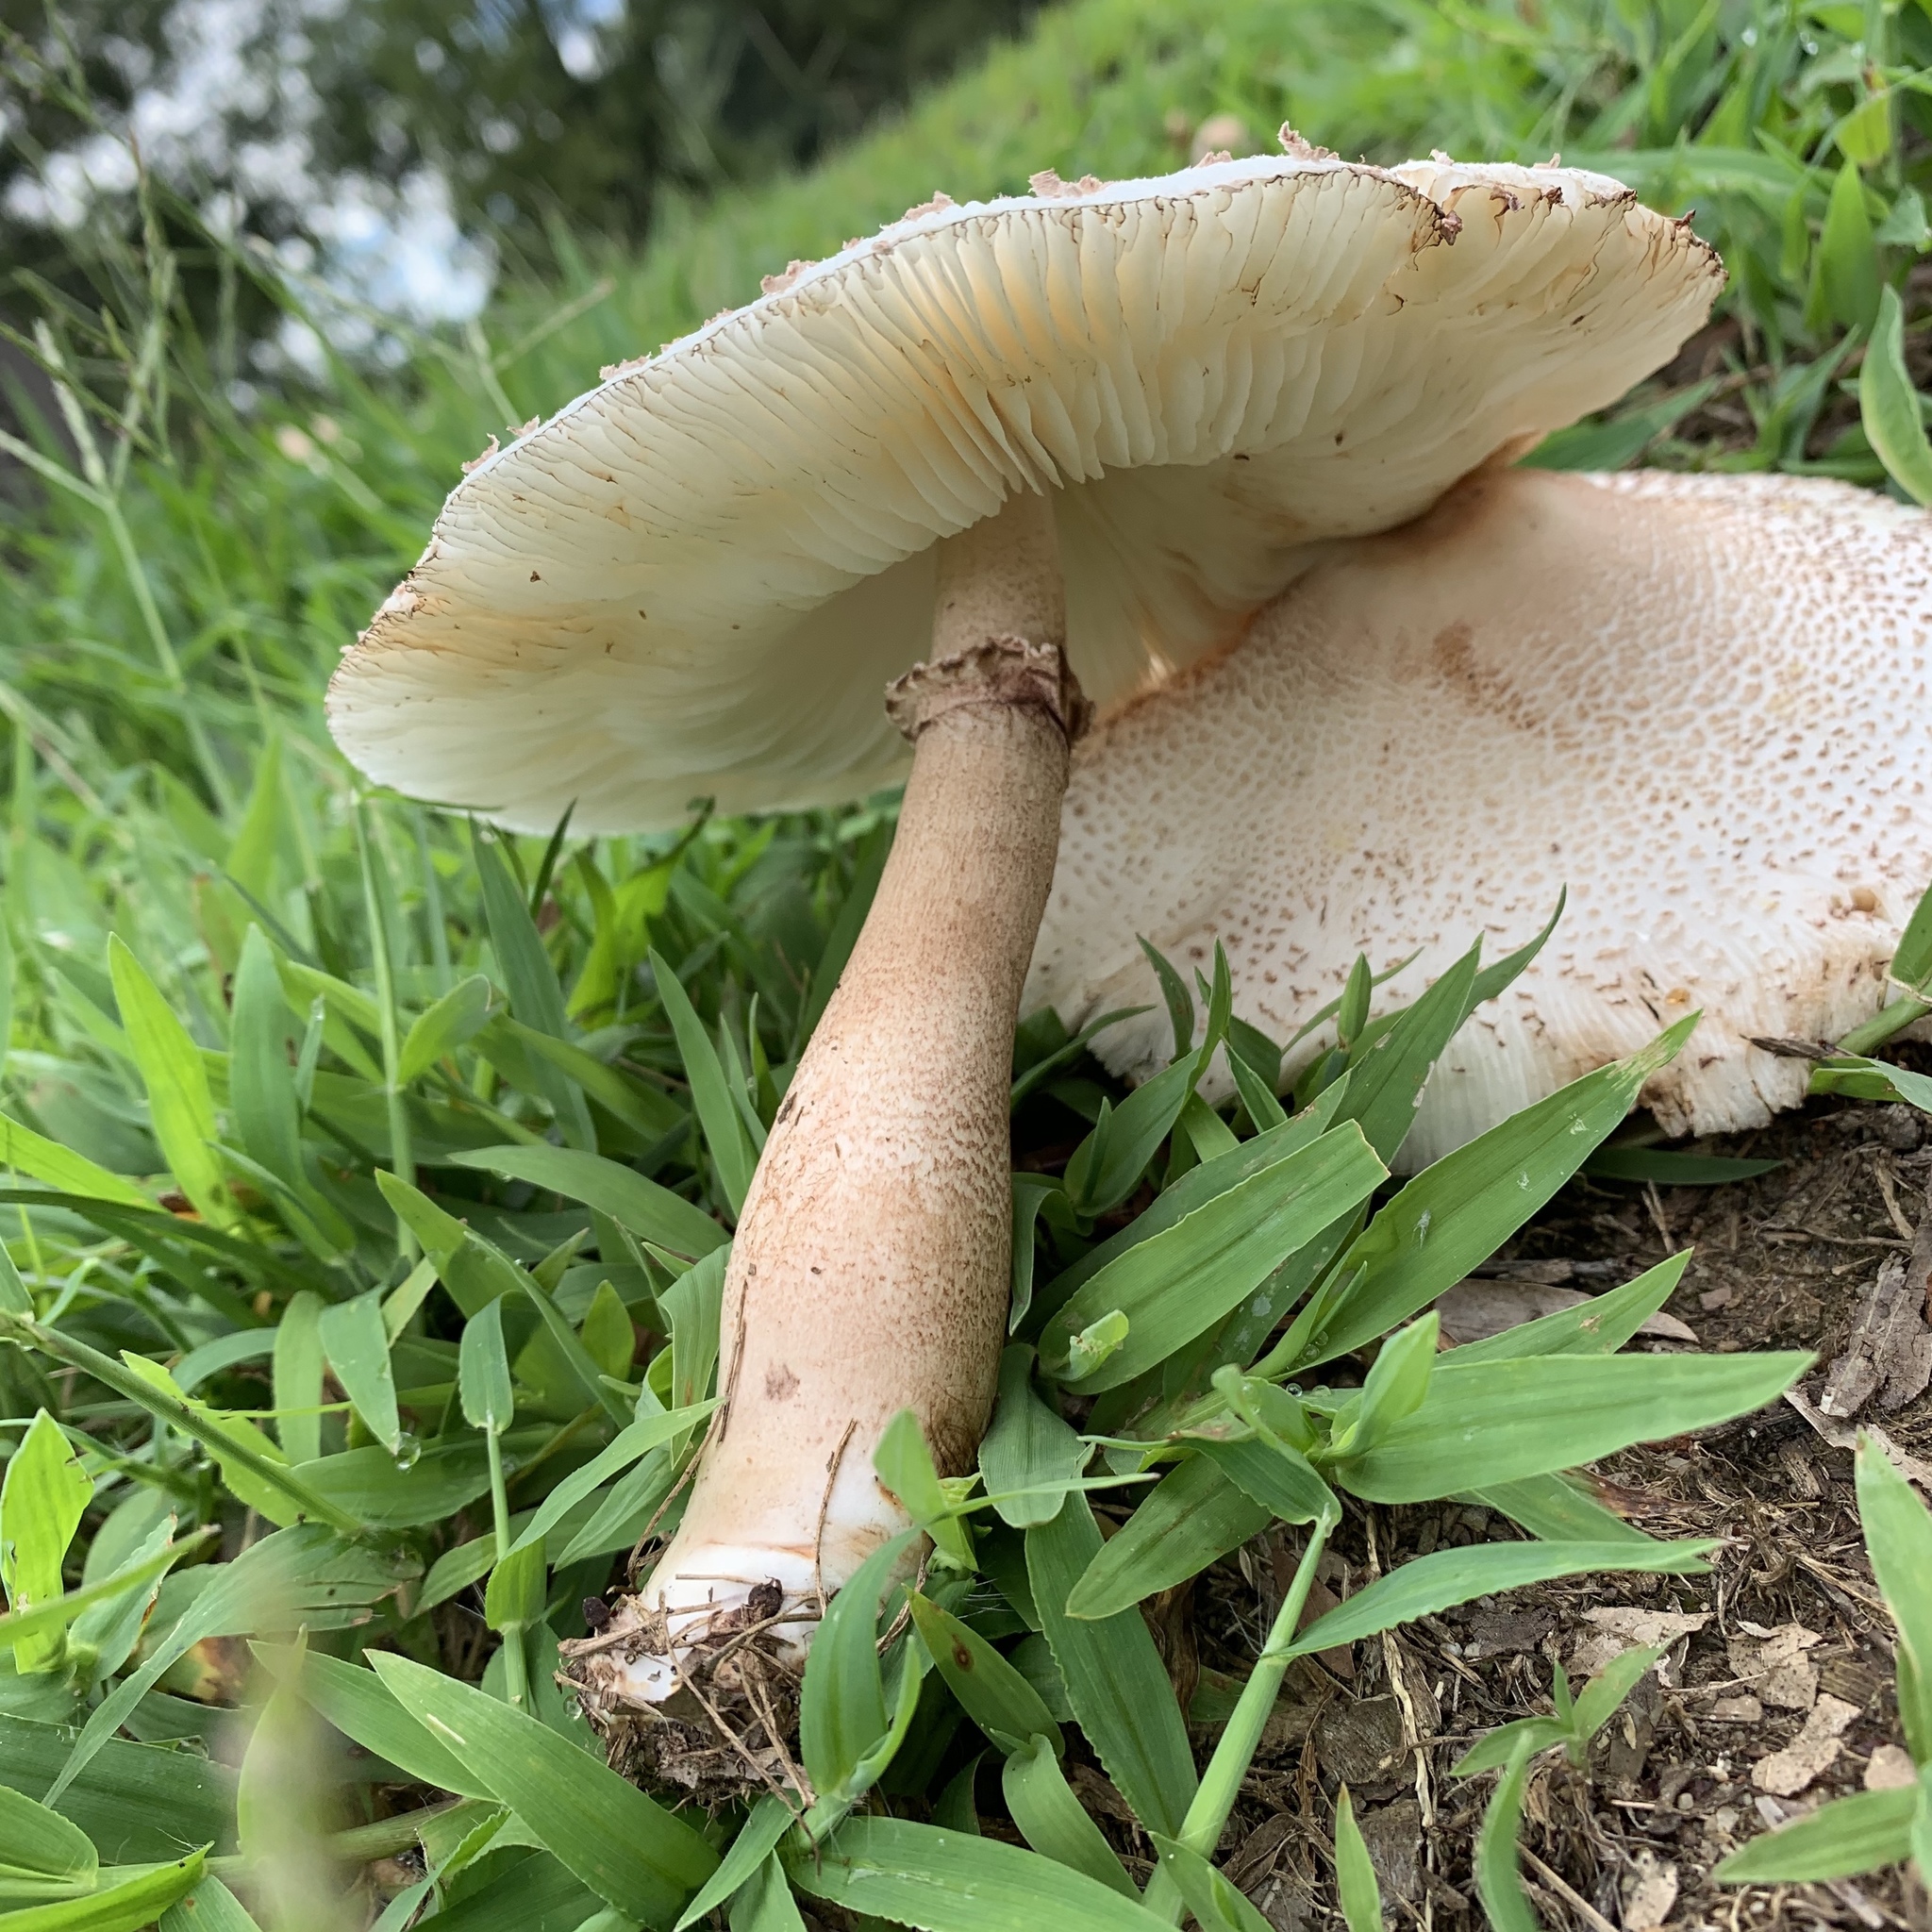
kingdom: Fungi
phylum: Basidiomycota
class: Agaricomycetes
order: Agaricales
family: Agaricaceae
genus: Leucoagaricus
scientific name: Leucoagaricus americanus
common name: Reddening lepiota
